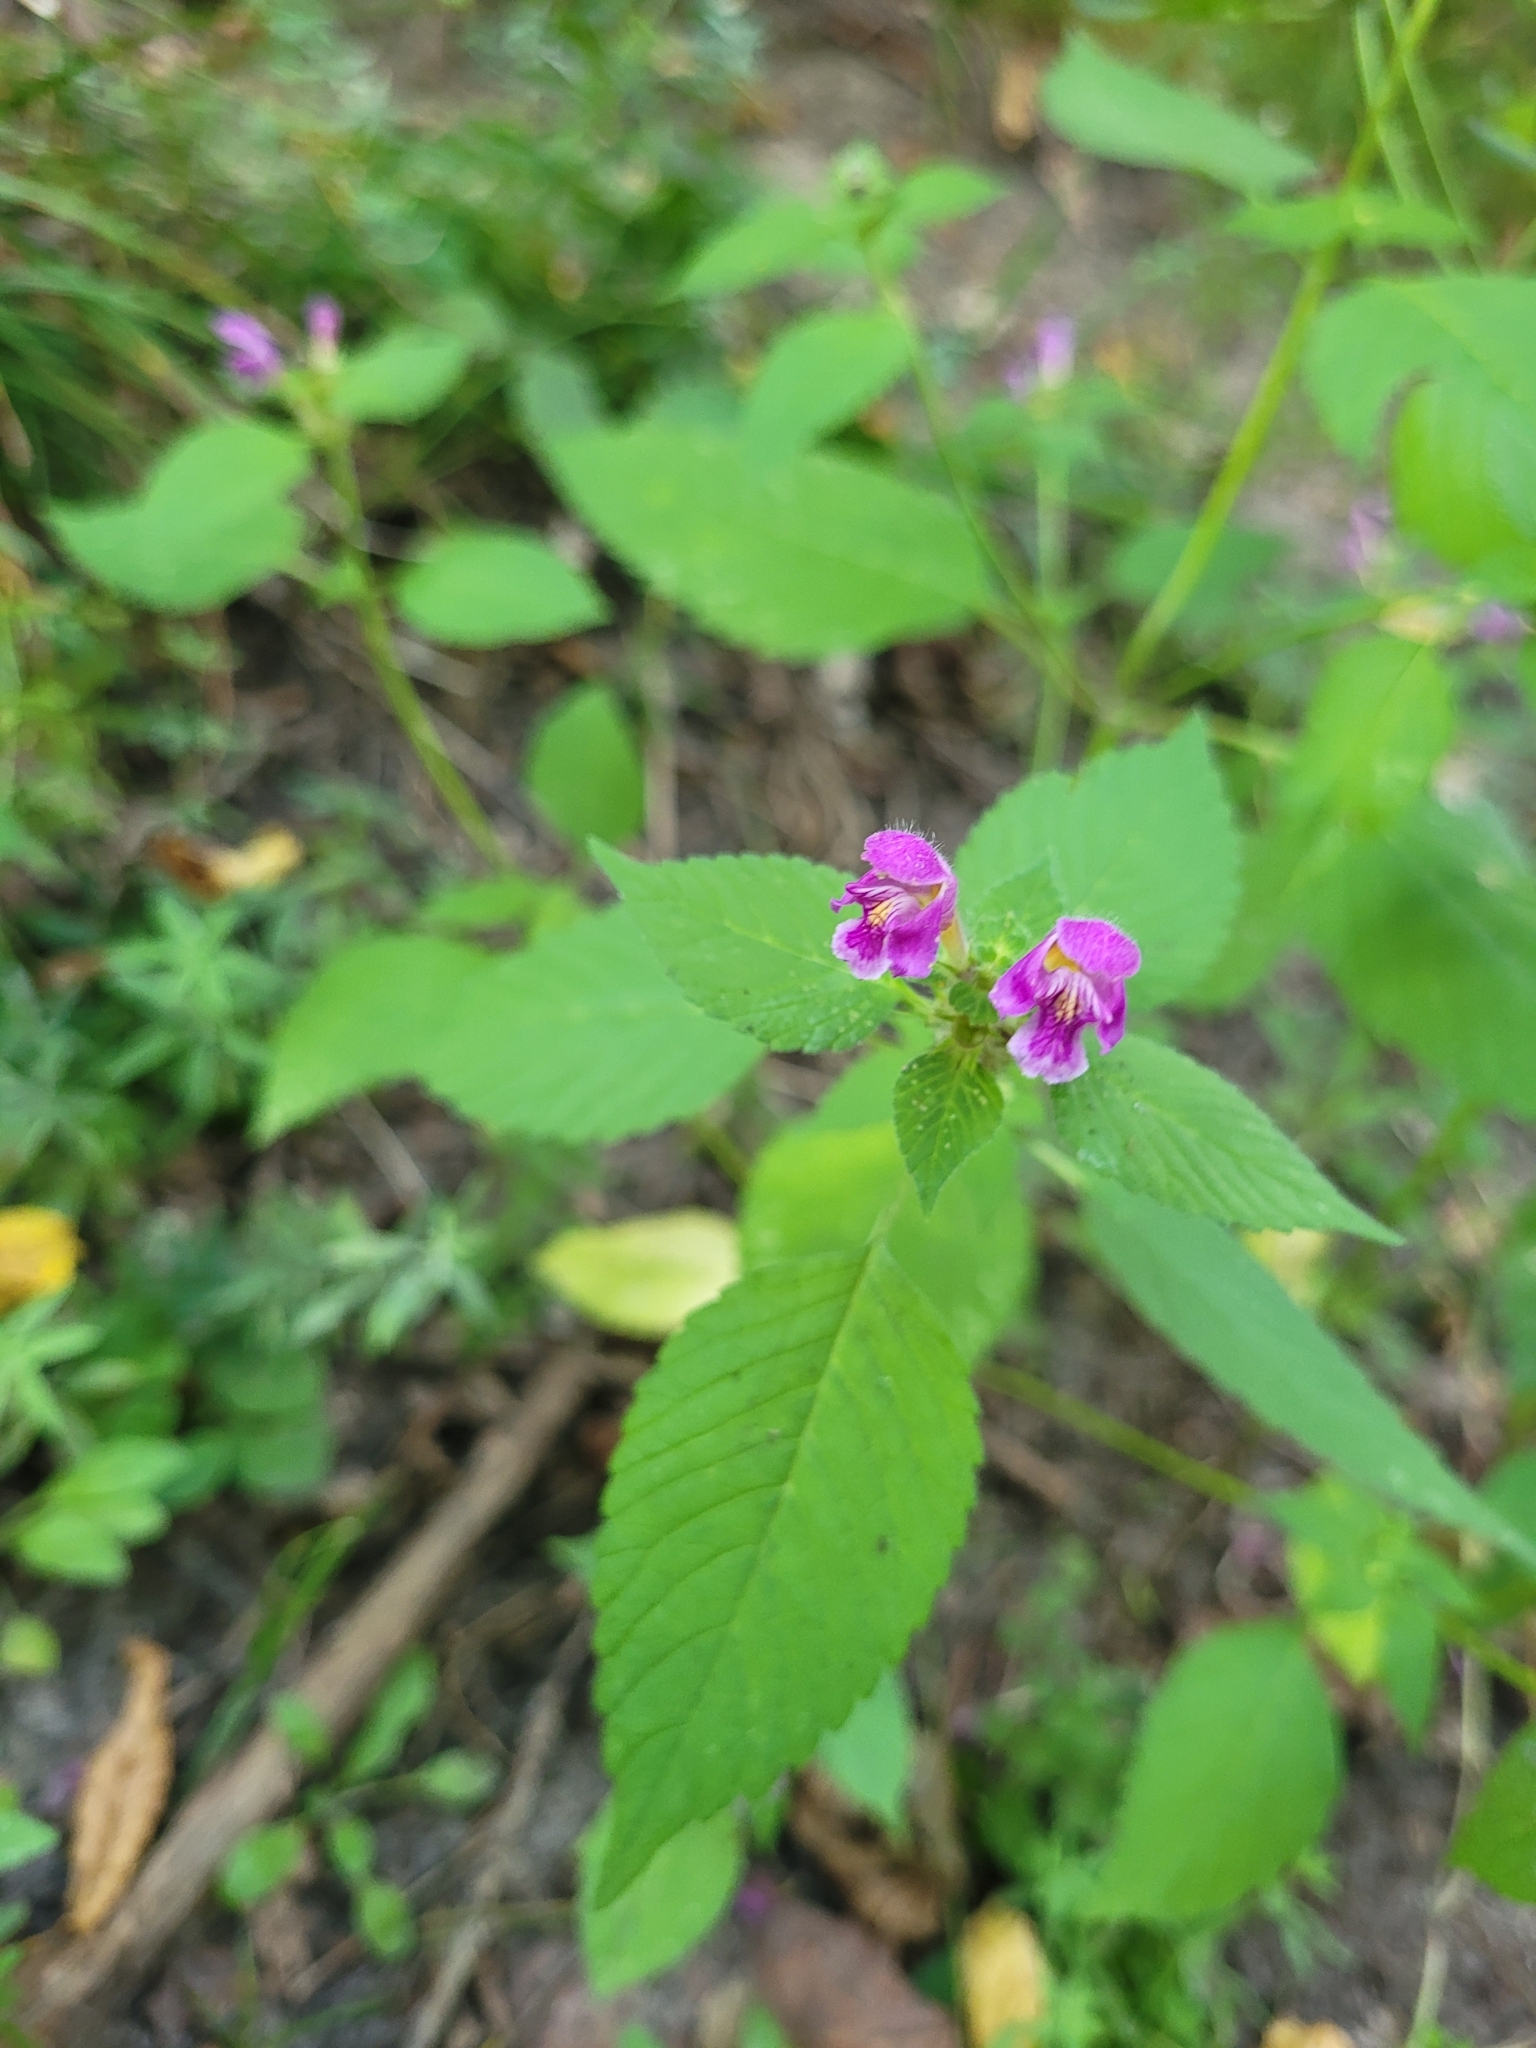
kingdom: Plantae
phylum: Tracheophyta
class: Magnoliopsida
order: Lamiales
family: Lamiaceae
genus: Galeopsis
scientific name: Galeopsis pubescens
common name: Downy hemp-nettle
